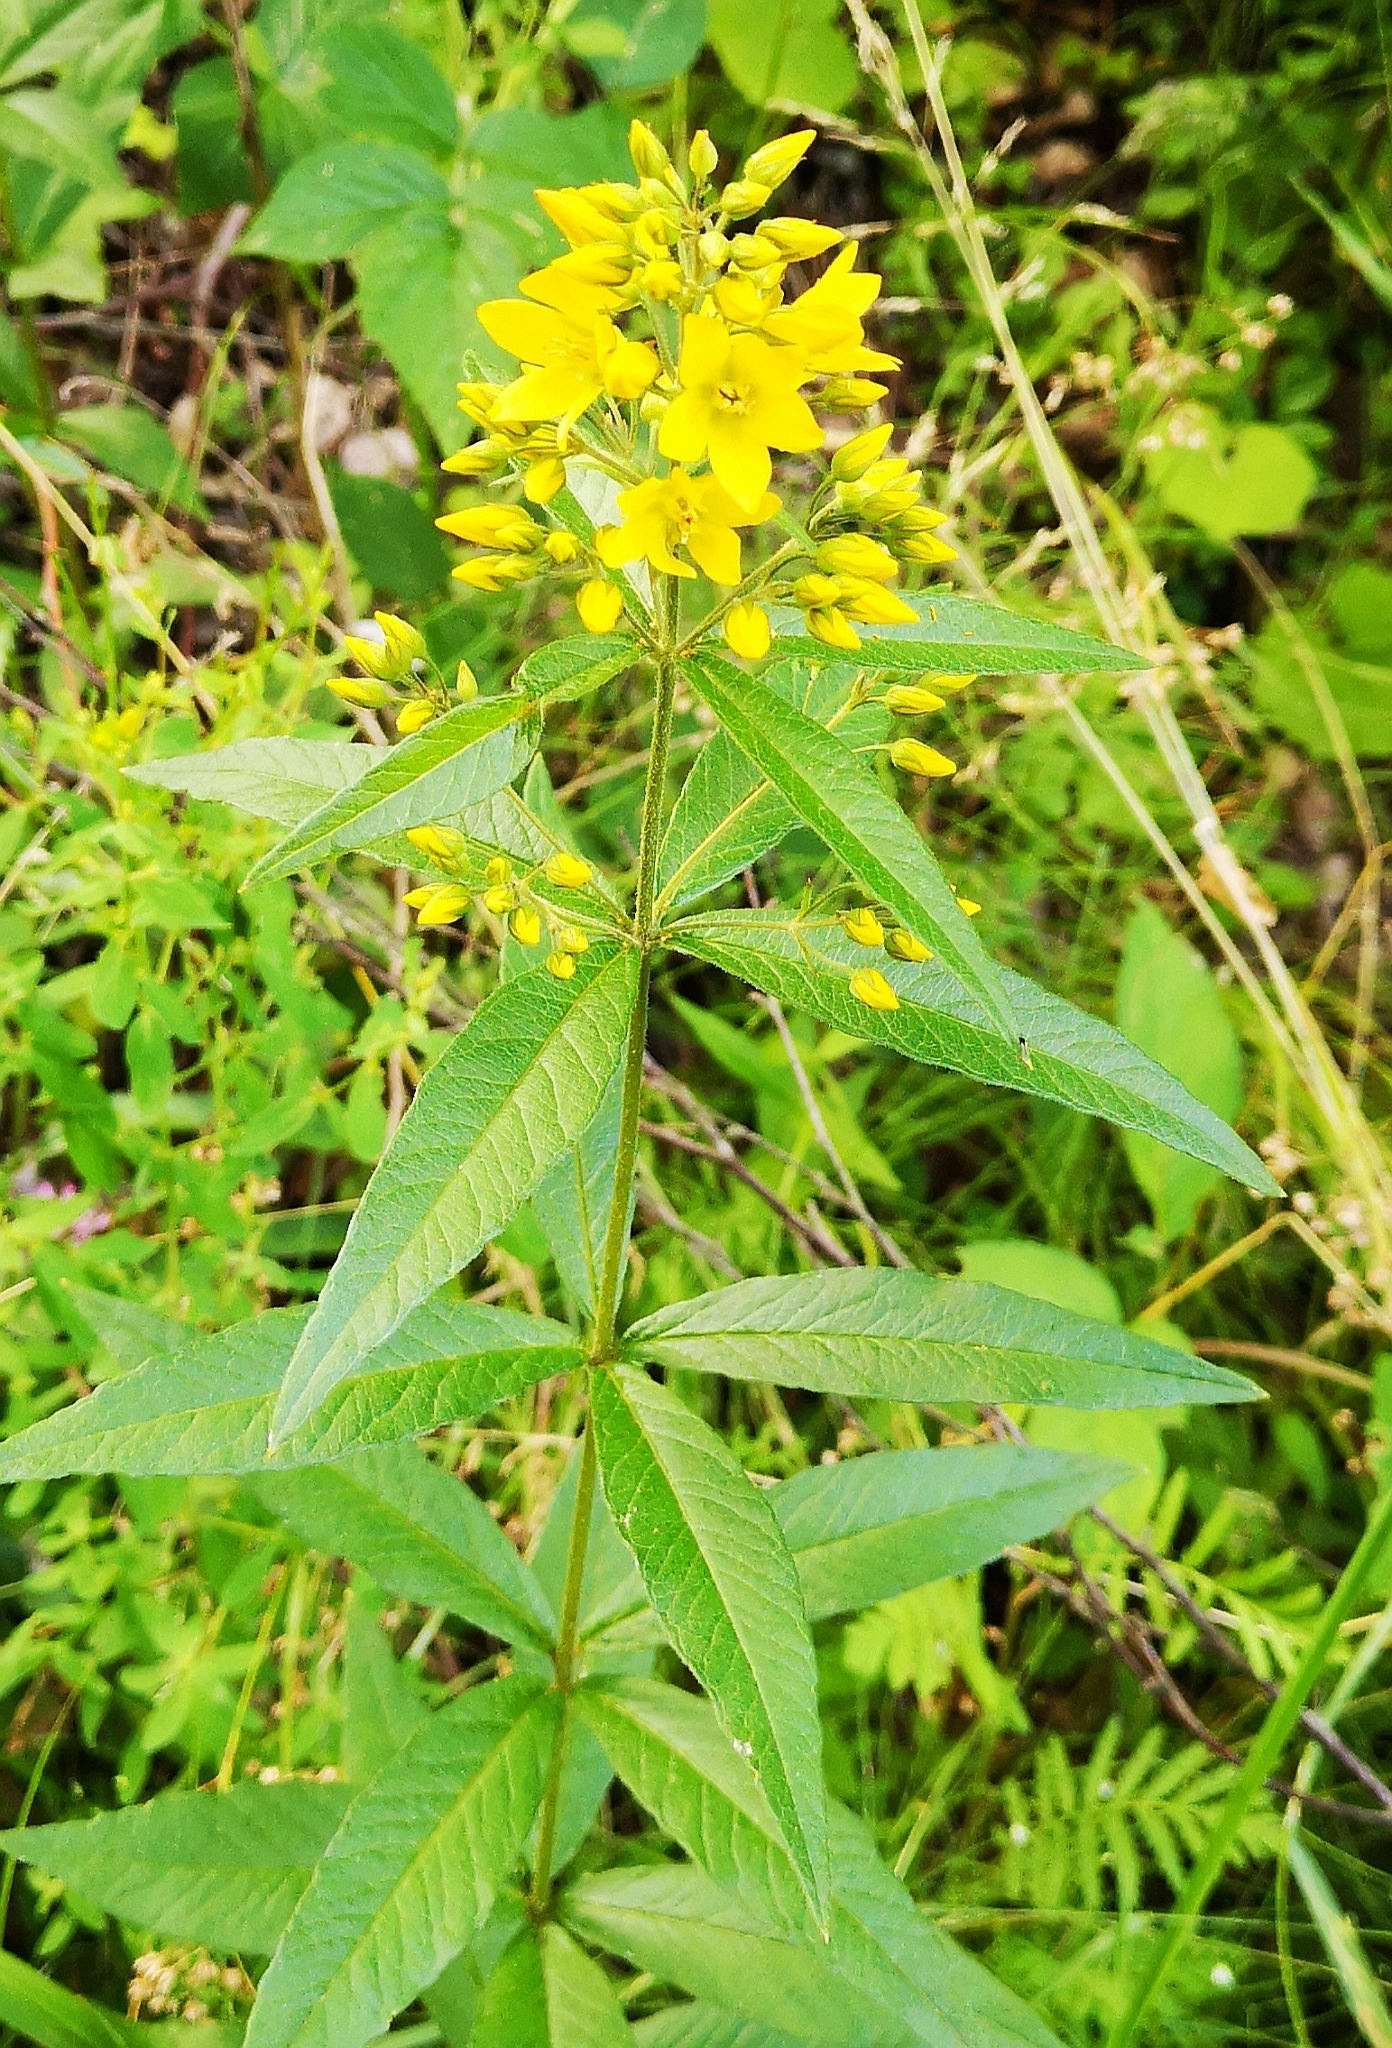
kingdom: Plantae
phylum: Tracheophyta
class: Magnoliopsida
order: Ericales
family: Primulaceae
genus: Lysimachia
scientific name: Lysimachia vulgaris
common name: Yellow loosestrife
